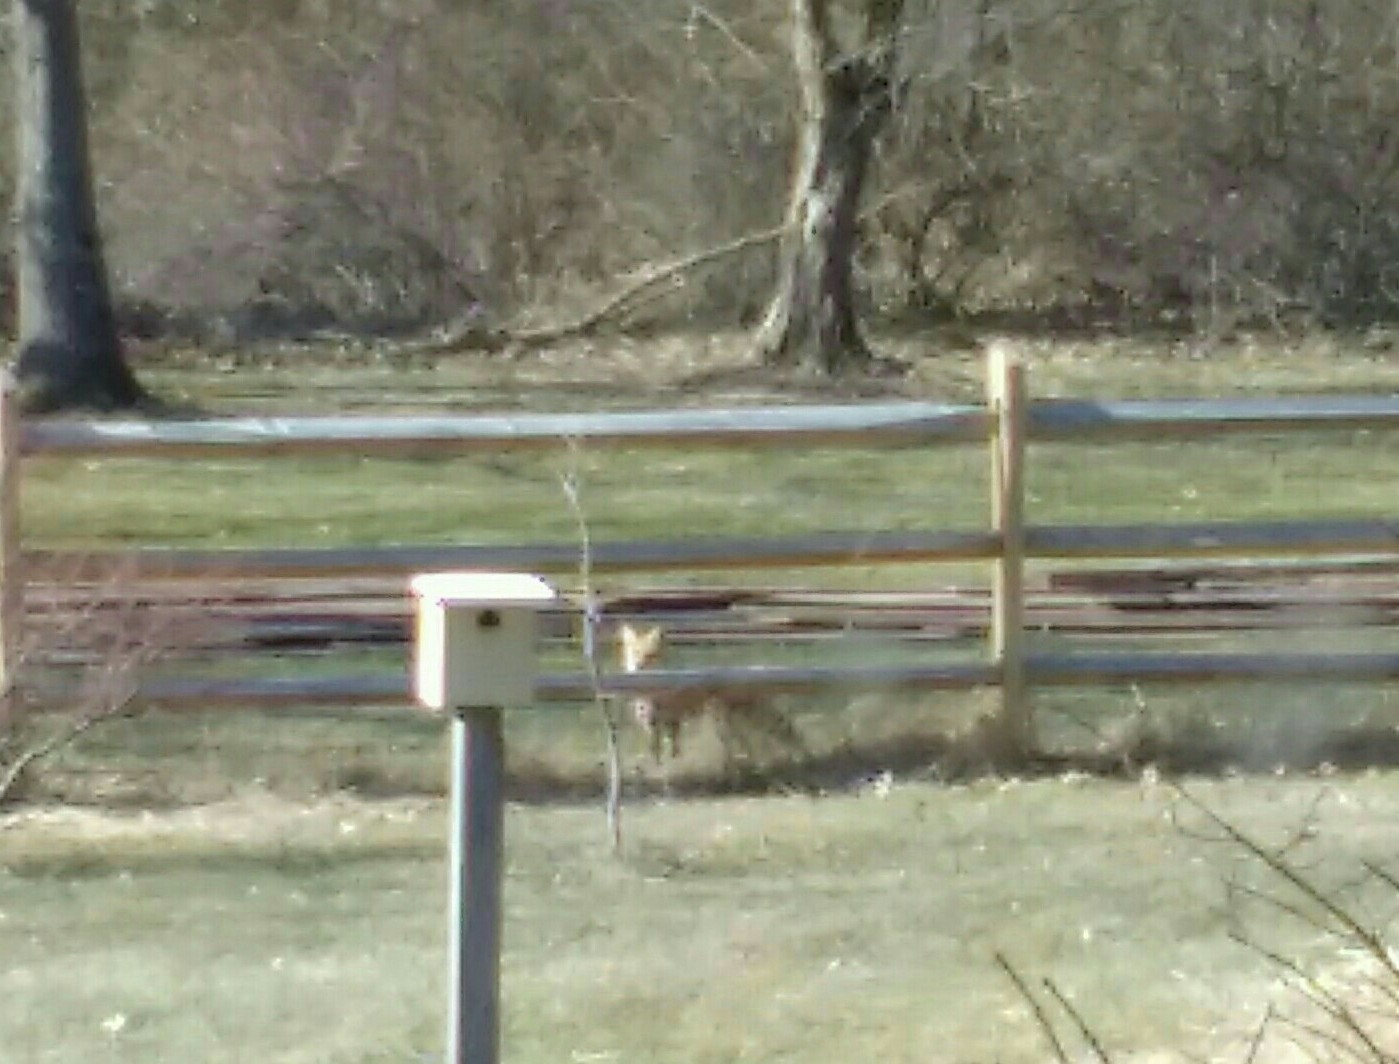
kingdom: Animalia
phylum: Chordata
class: Mammalia
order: Carnivora
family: Canidae
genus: Vulpes
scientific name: Vulpes vulpes
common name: Red fox
